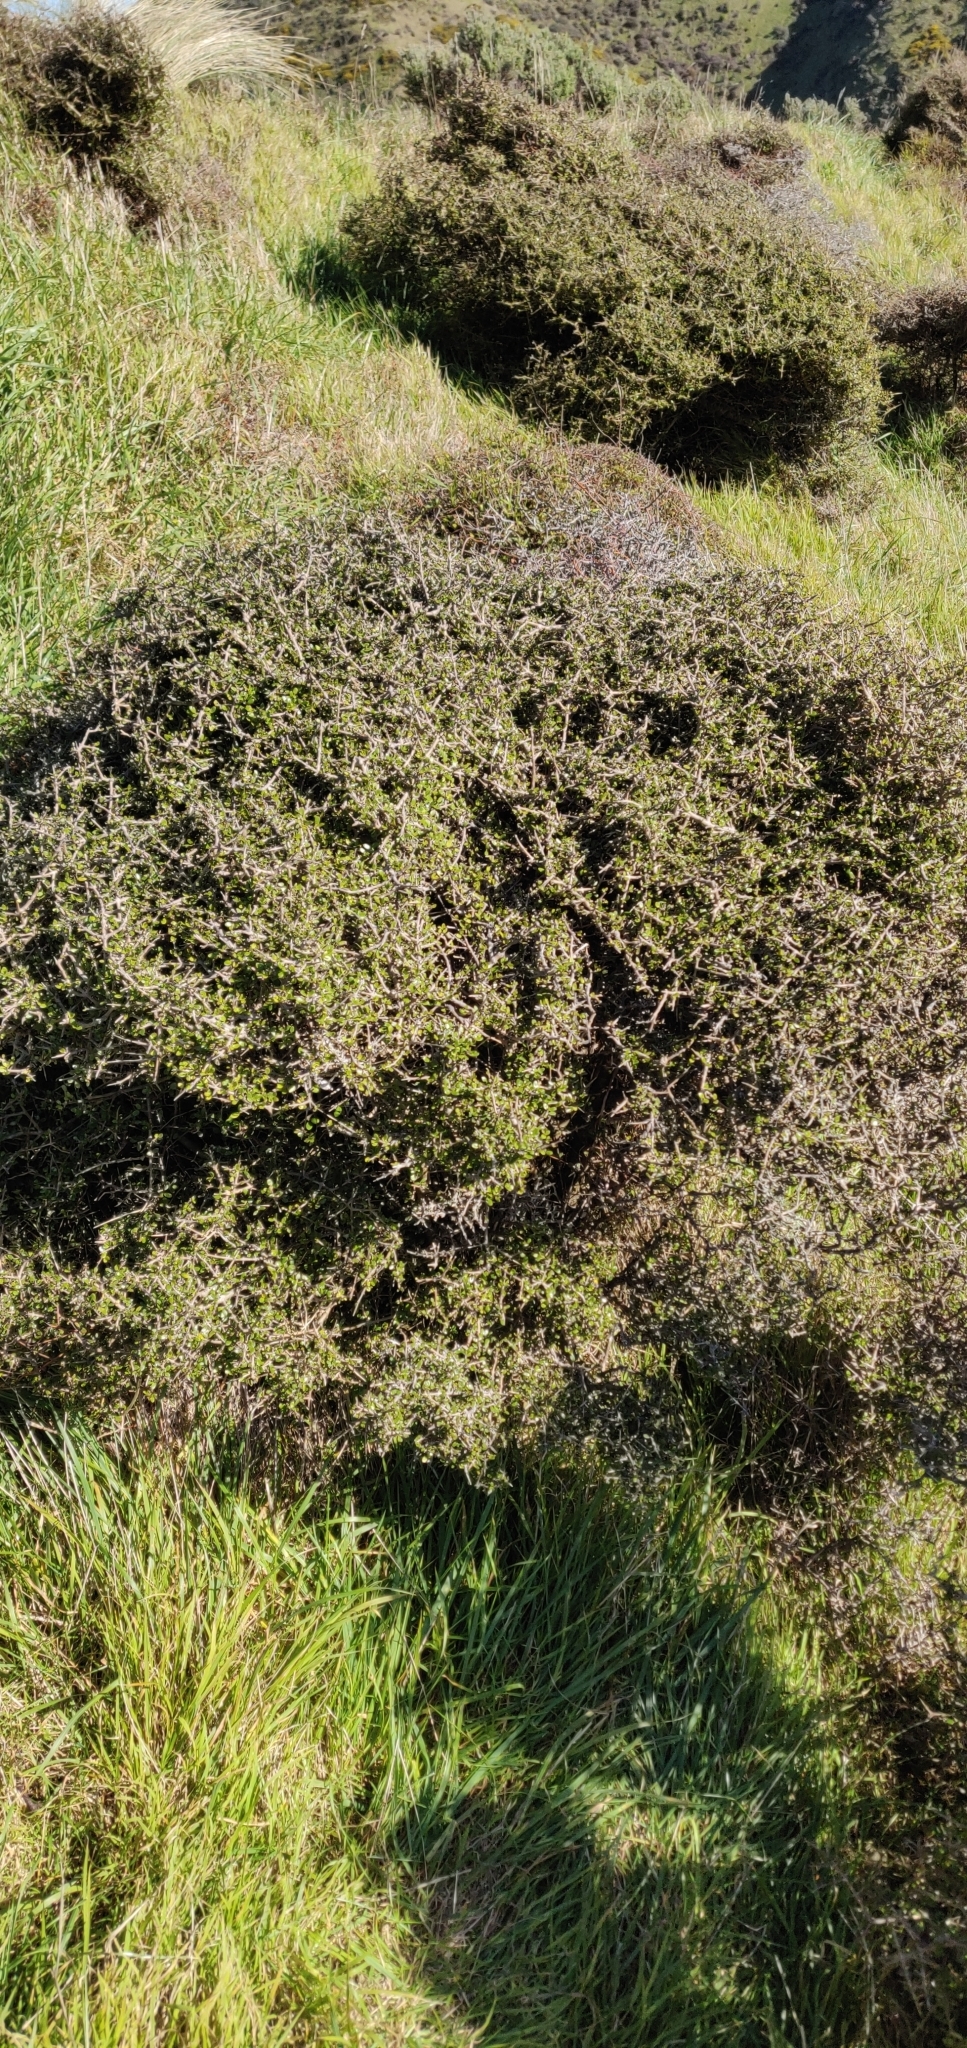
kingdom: Plantae
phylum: Tracheophyta
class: Magnoliopsida
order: Gentianales
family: Rubiaceae
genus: Coprosma
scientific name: Coprosma propinqua
